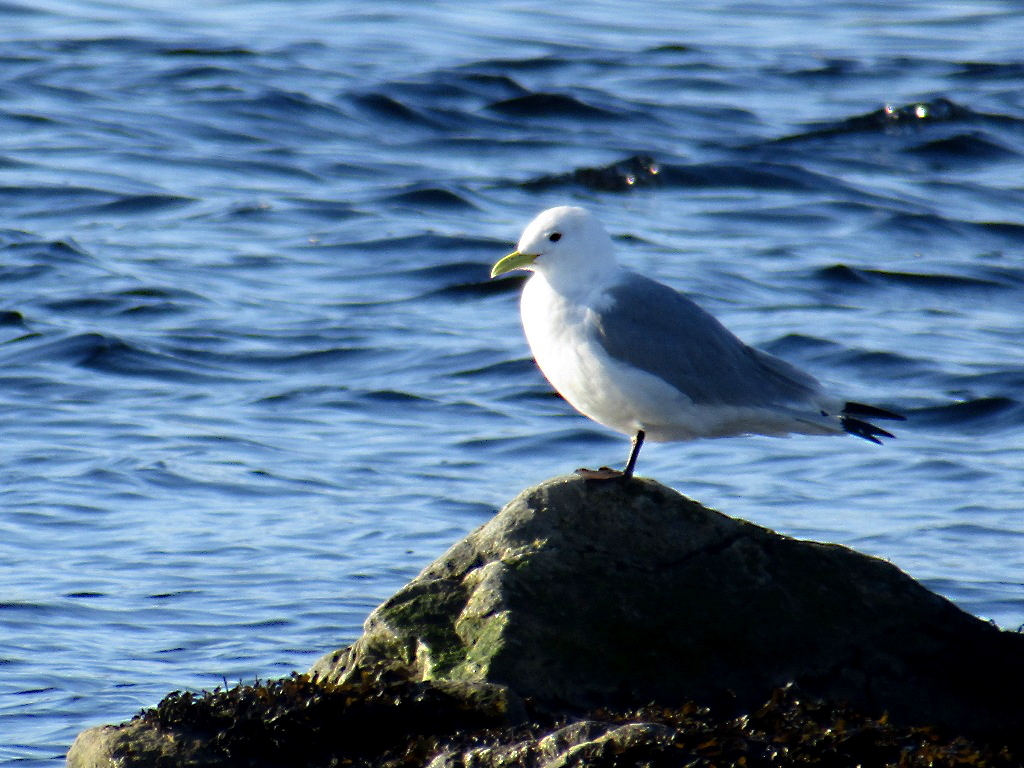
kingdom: Animalia
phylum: Chordata
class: Aves
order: Charadriiformes
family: Laridae
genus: Rissa
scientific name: Rissa tridactyla
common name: Black-legged kittiwake
